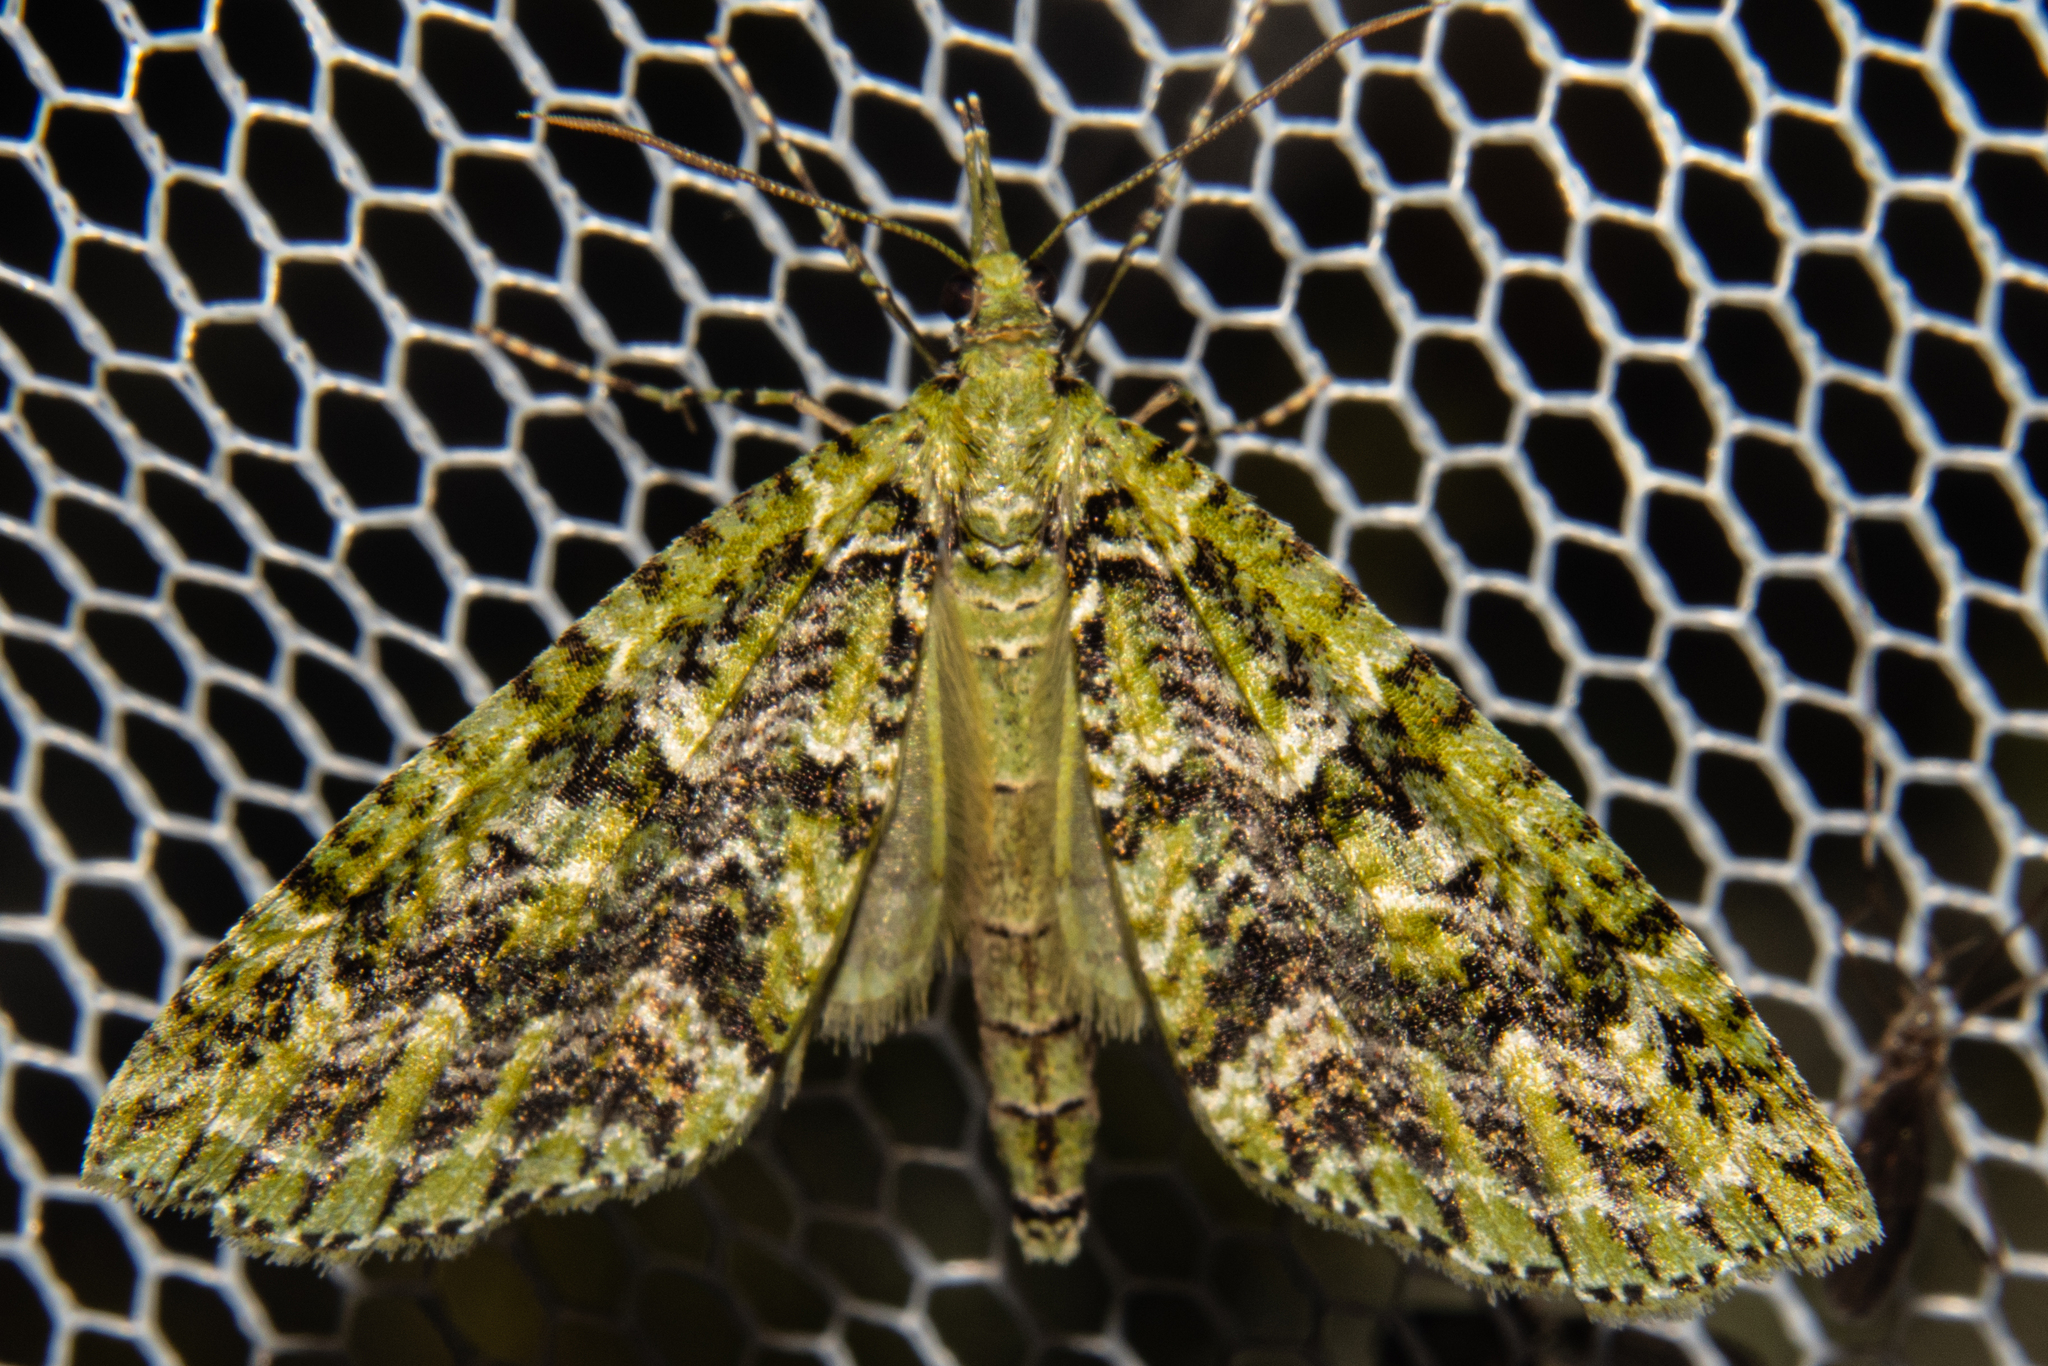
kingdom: Animalia
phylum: Arthropoda
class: Insecta
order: Lepidoptera
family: Geometridae
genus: Tatosoma
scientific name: Tatosoma tipulata
